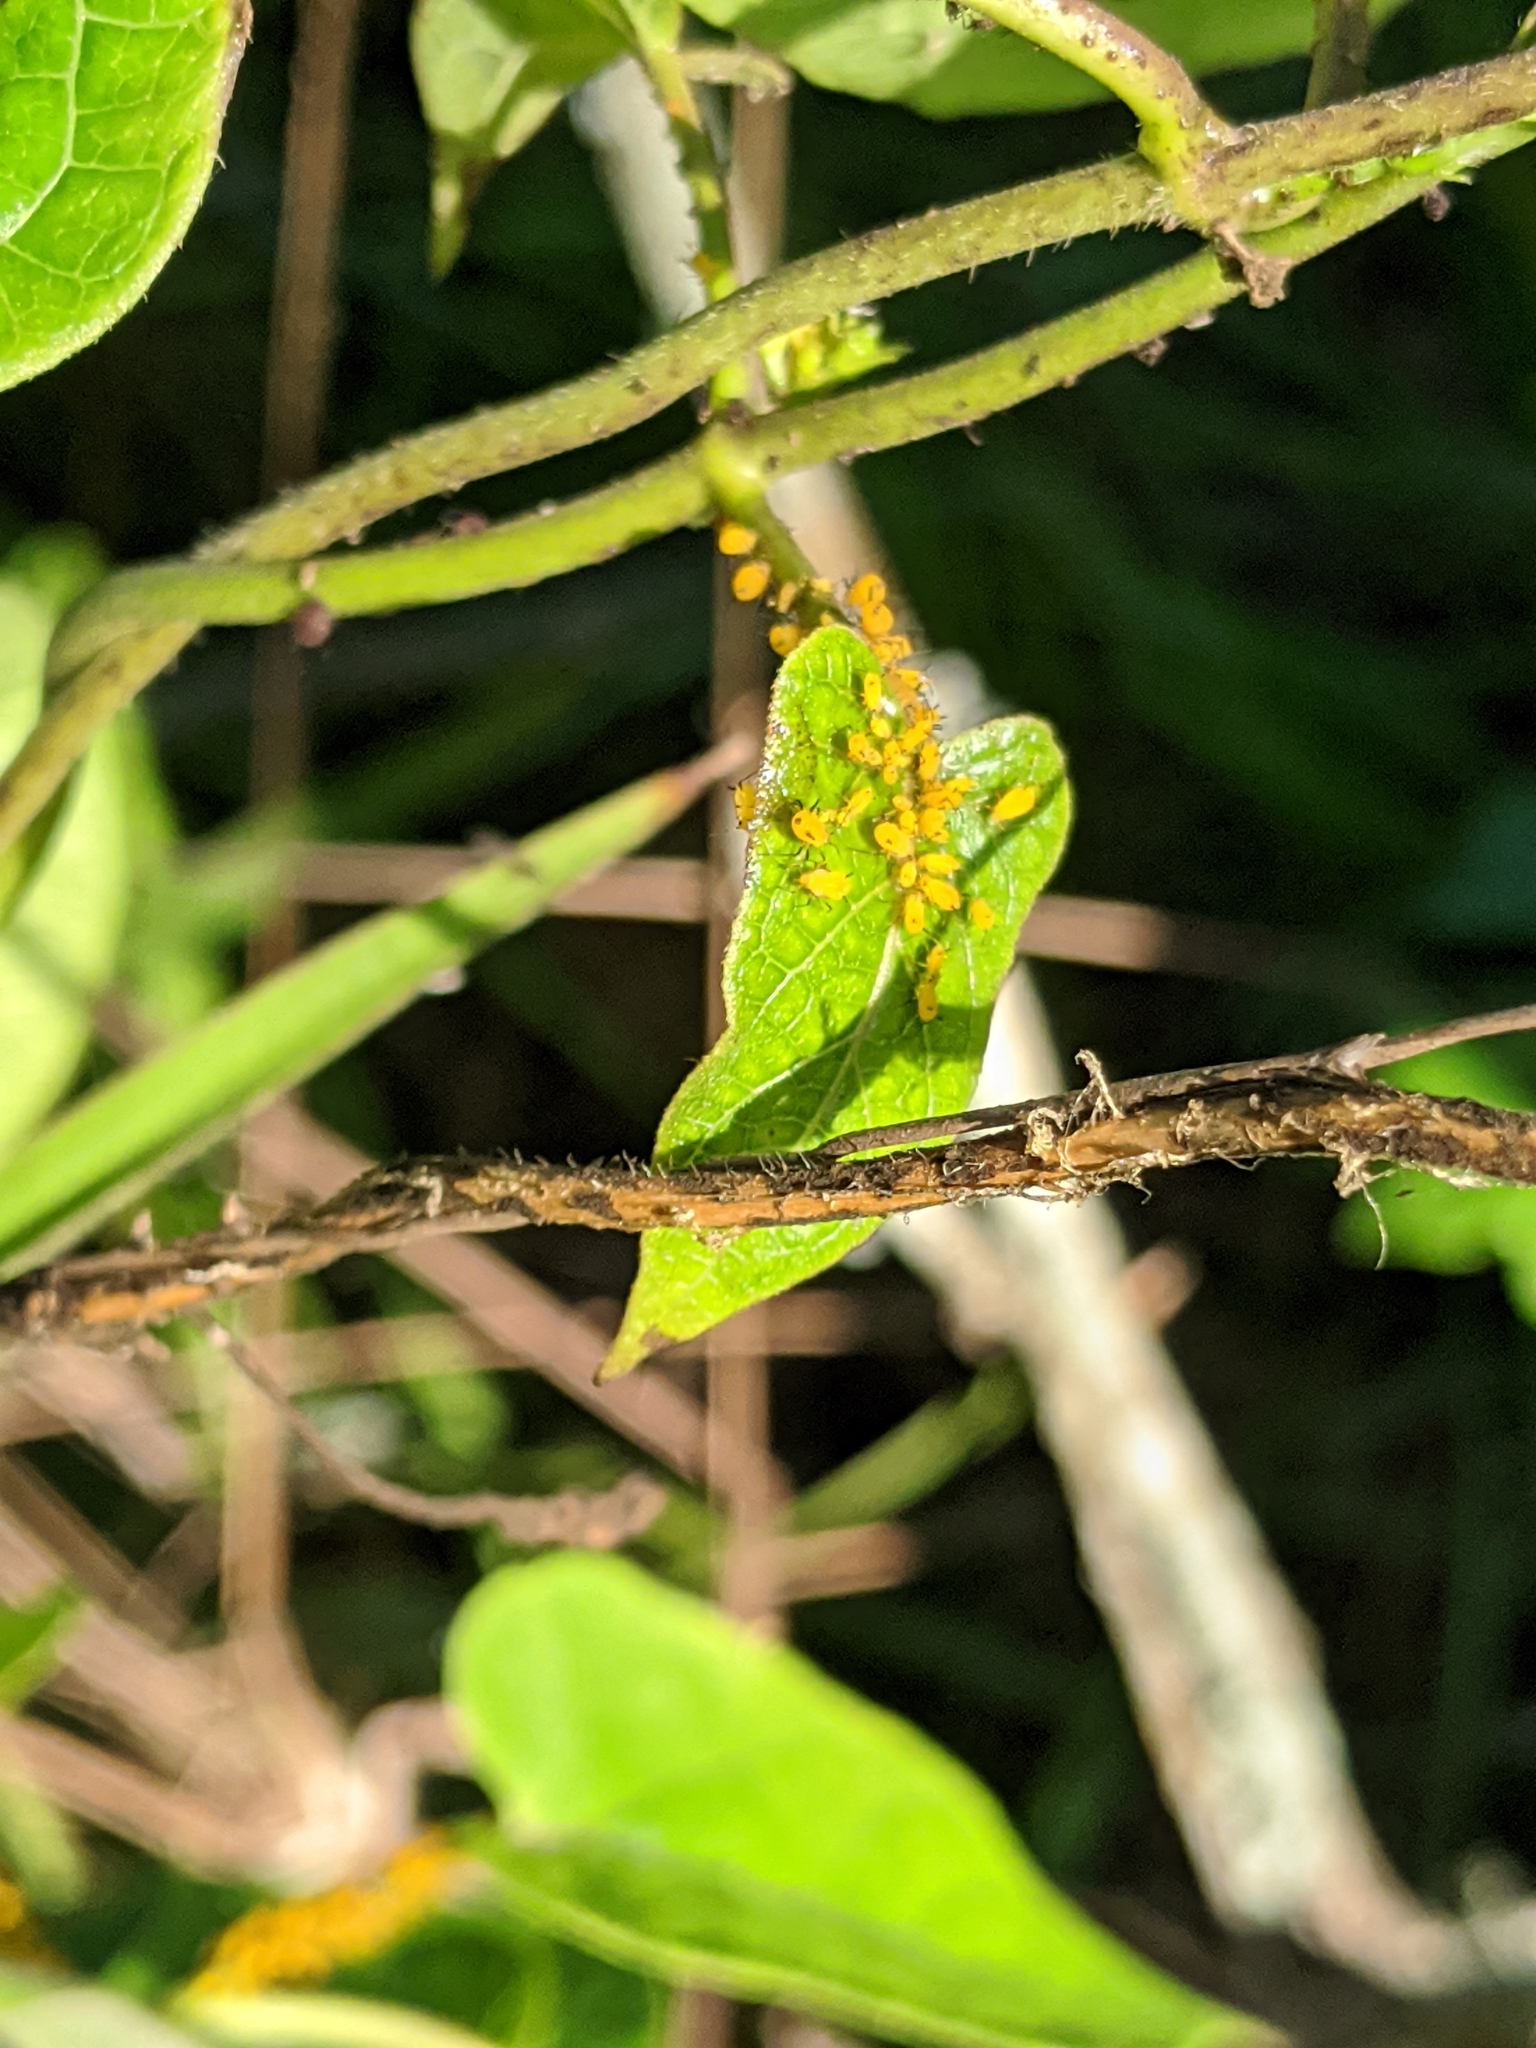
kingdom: Animalia
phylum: Arthropoda
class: Insecta
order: Hemiptera
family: Aphididae
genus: Aphis
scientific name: Aphis nerii
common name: Oleander aphid
